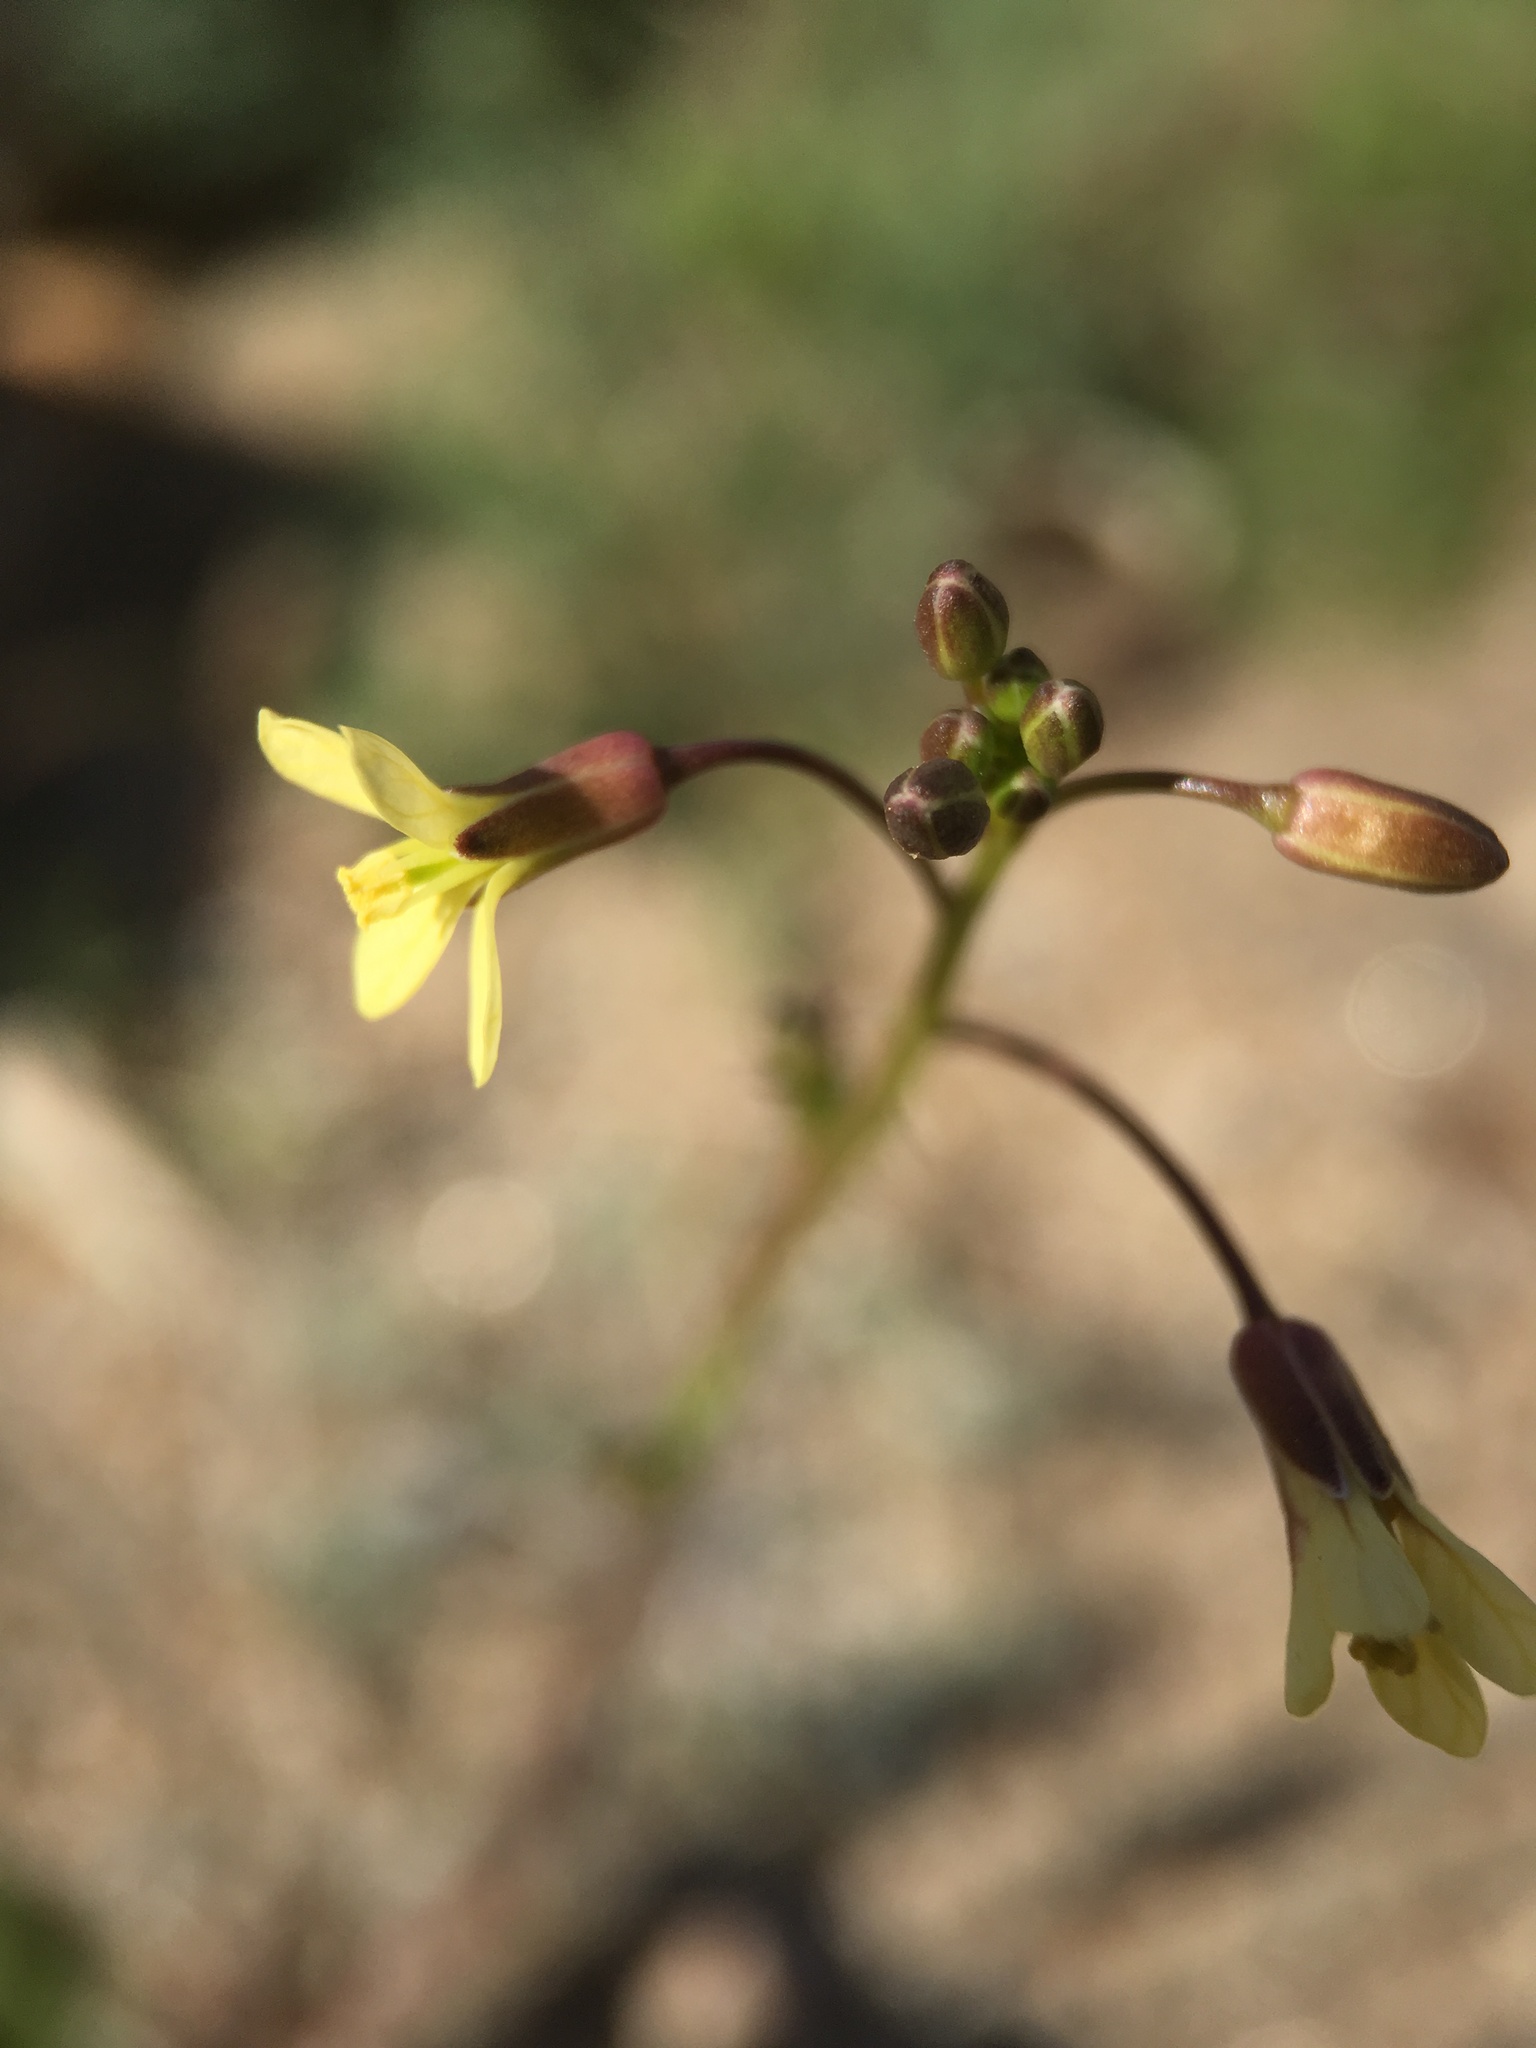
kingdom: Plantae
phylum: Tracheophyta
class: Magnoliopsida
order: Brassicales
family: Brassicaceae
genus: Brassica
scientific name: Brassica tournefortii
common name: Pale cabbage
